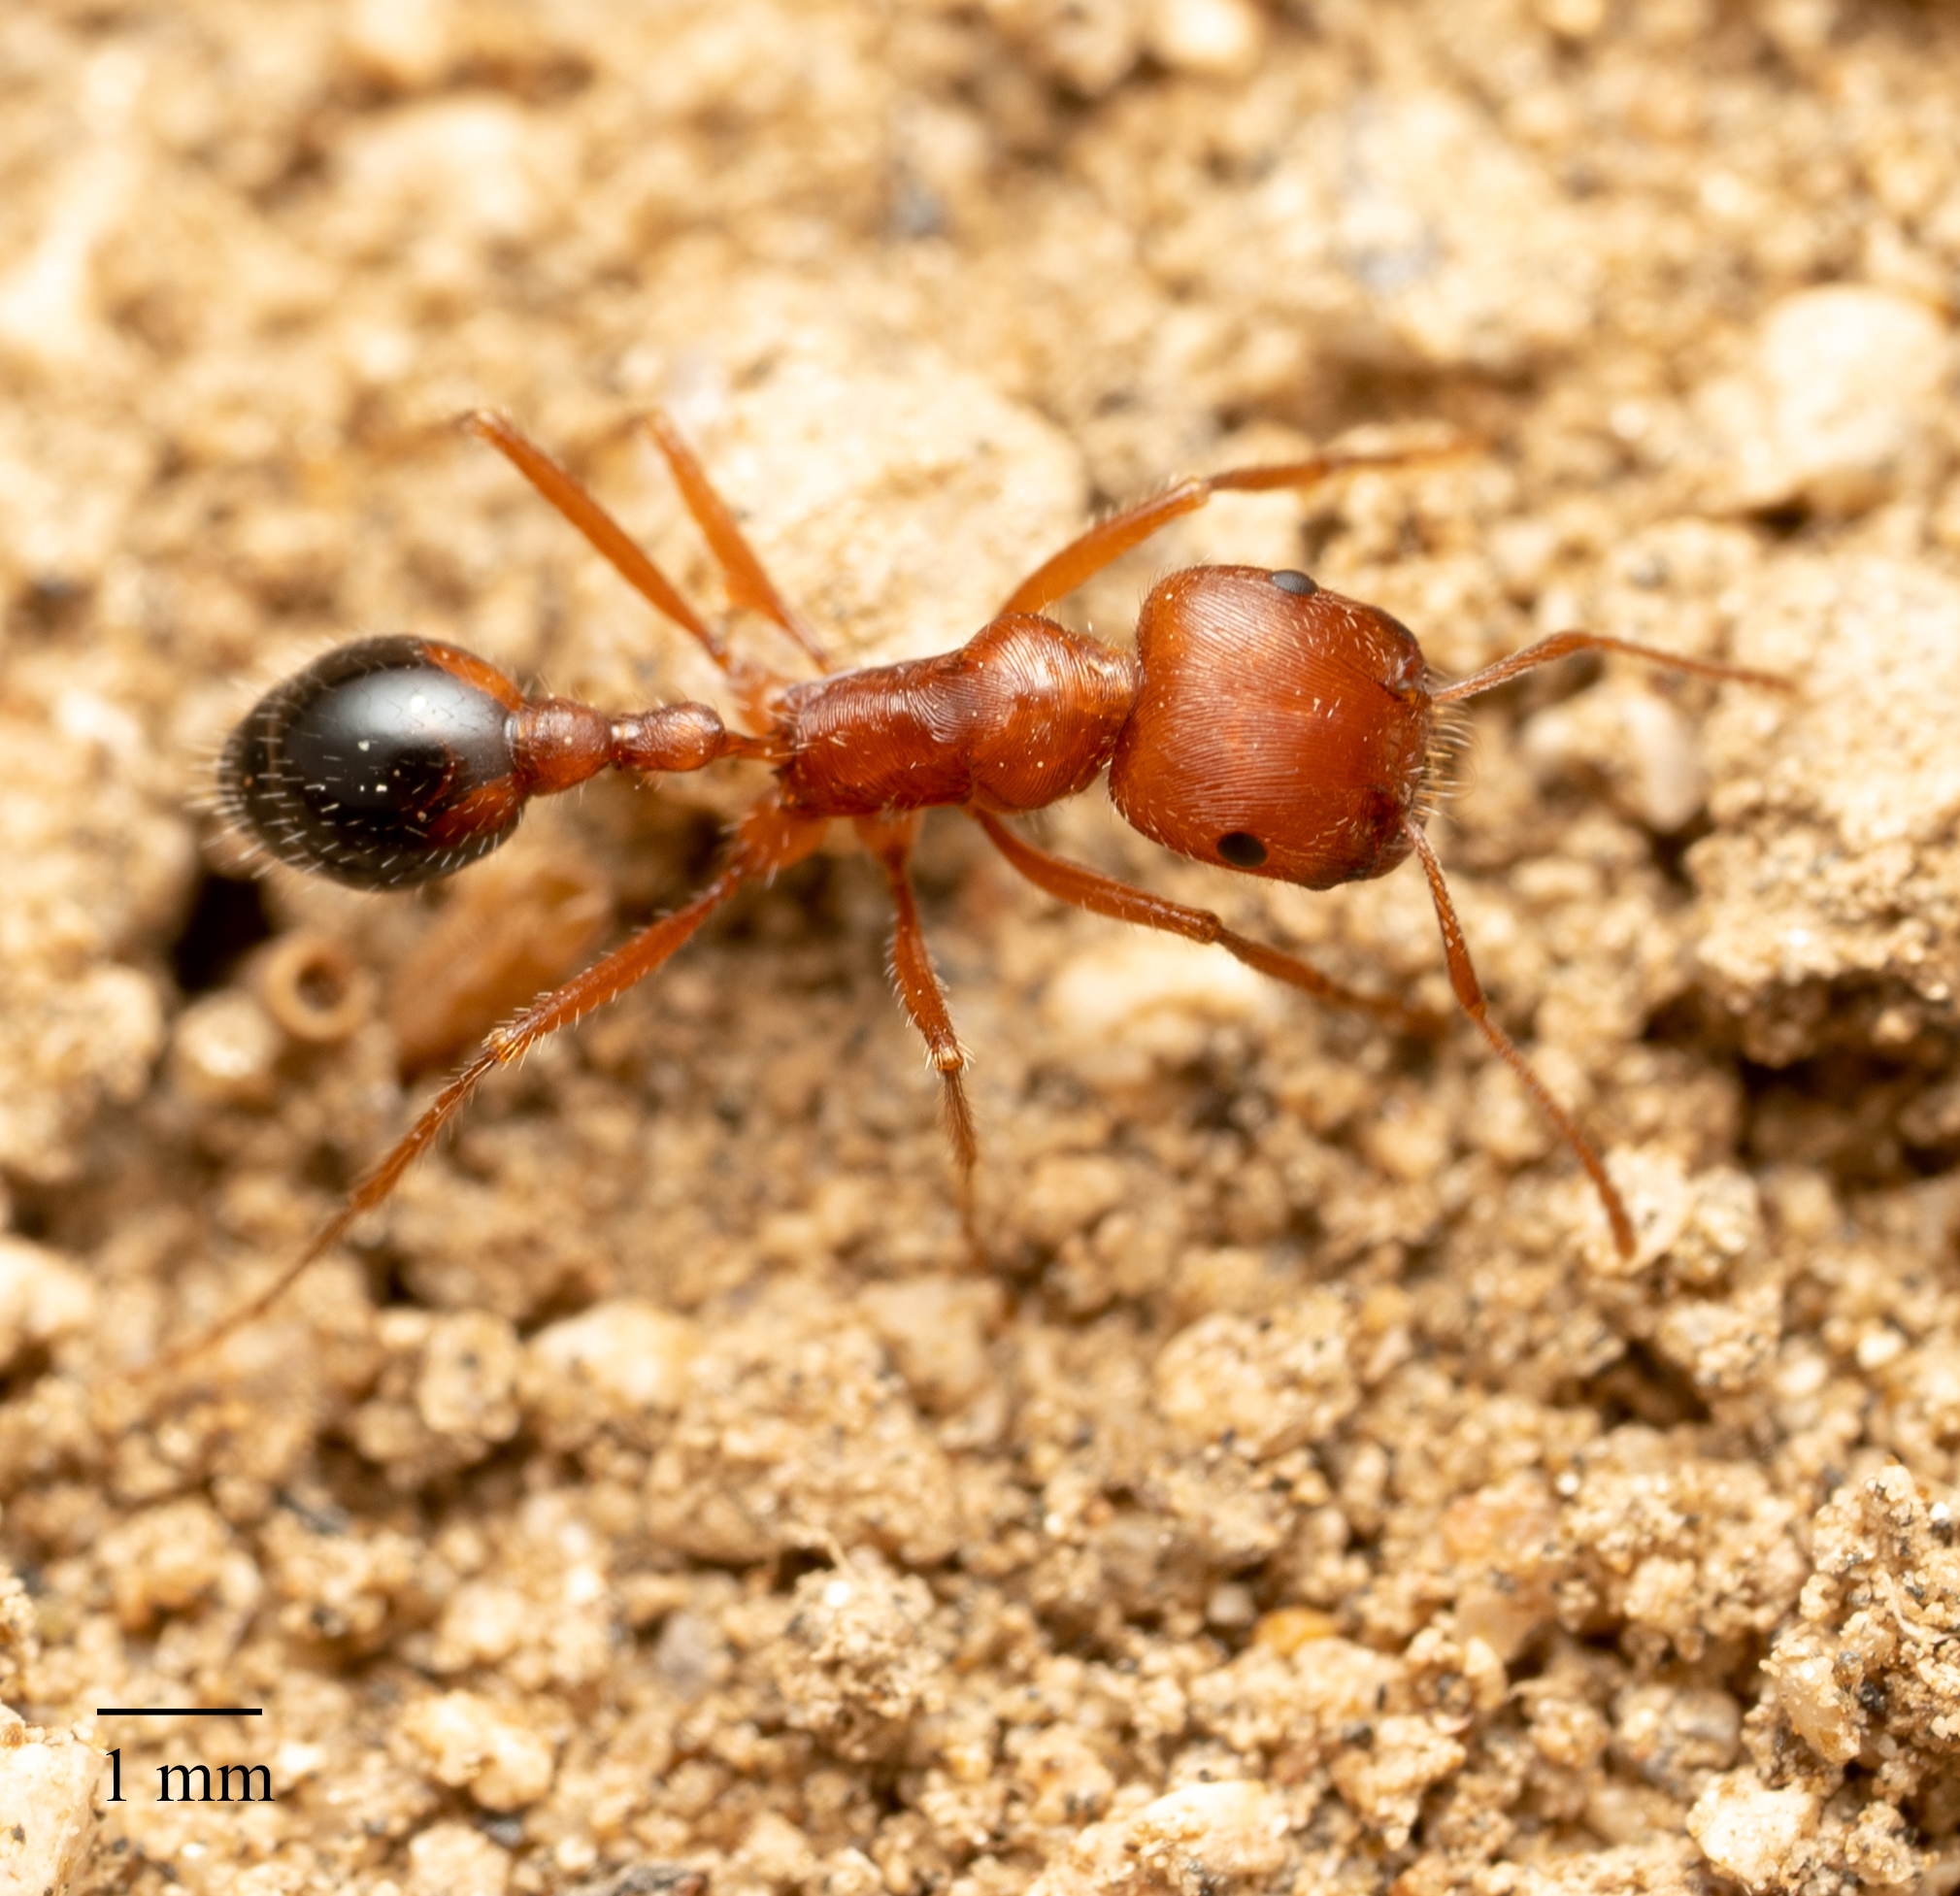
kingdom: Animalia
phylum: Arthropoda
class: Insecta
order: Hymenoptera
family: Formicidae
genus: Pogonomyrmex
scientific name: Pogonomyrmex californicus
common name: California harvester ant
